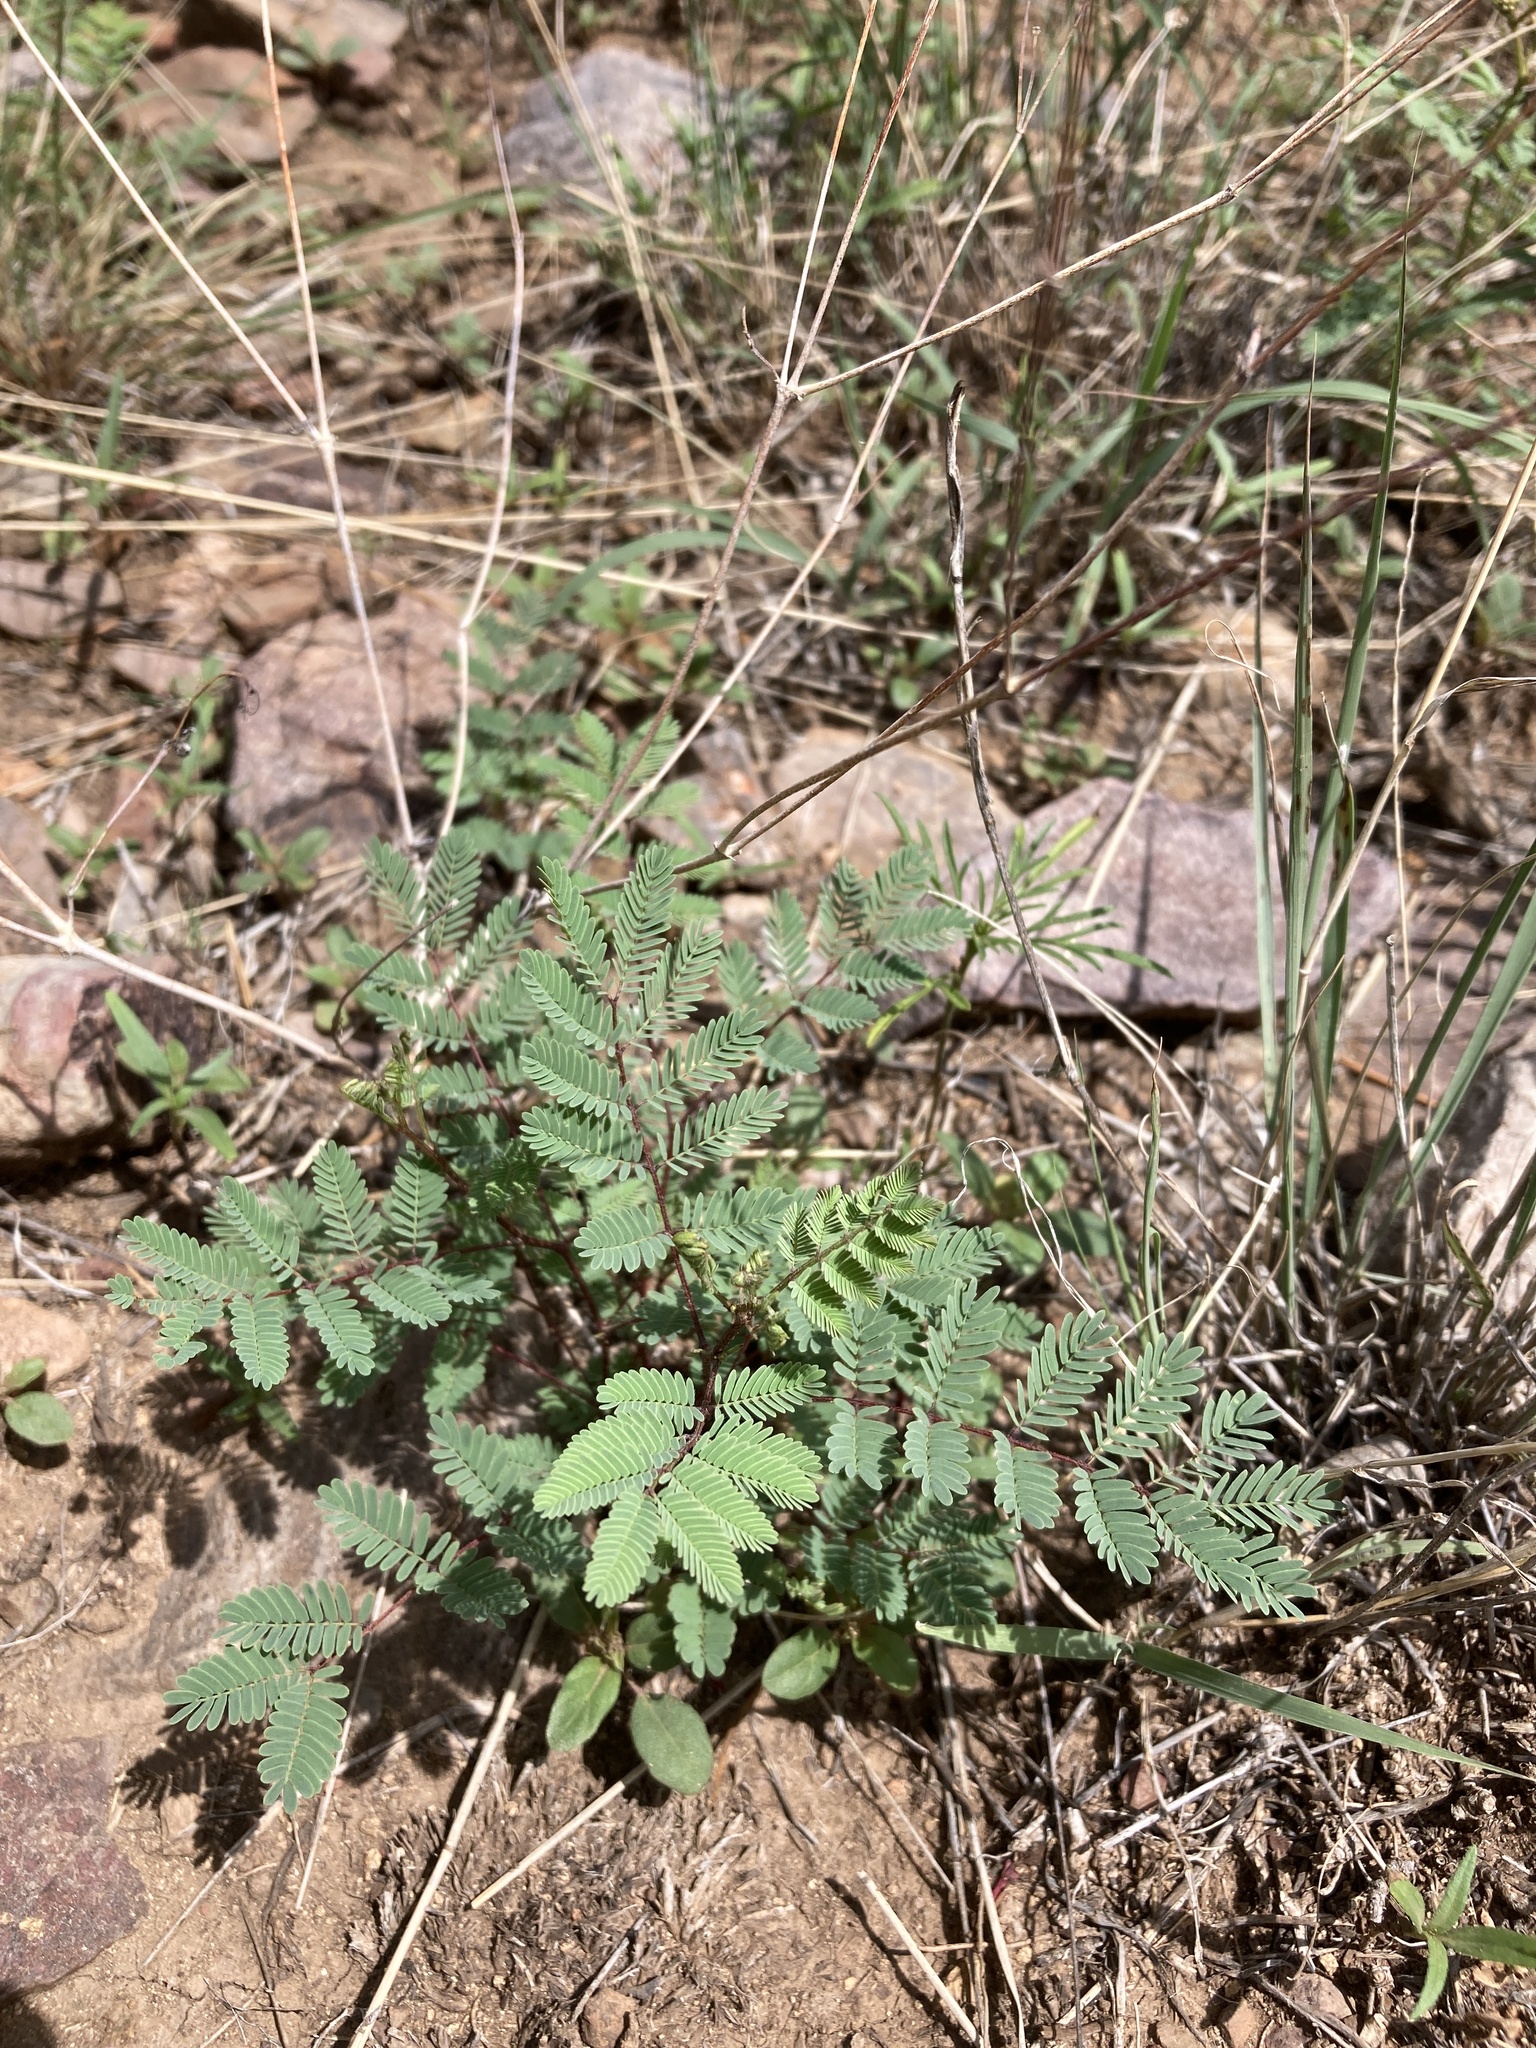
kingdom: Plantae
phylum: Tracheophyta
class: Magnoliopsida
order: Fabales
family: Fabaceae
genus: Acaciella
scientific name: Acaciella angustissima
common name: Prairie acacia
